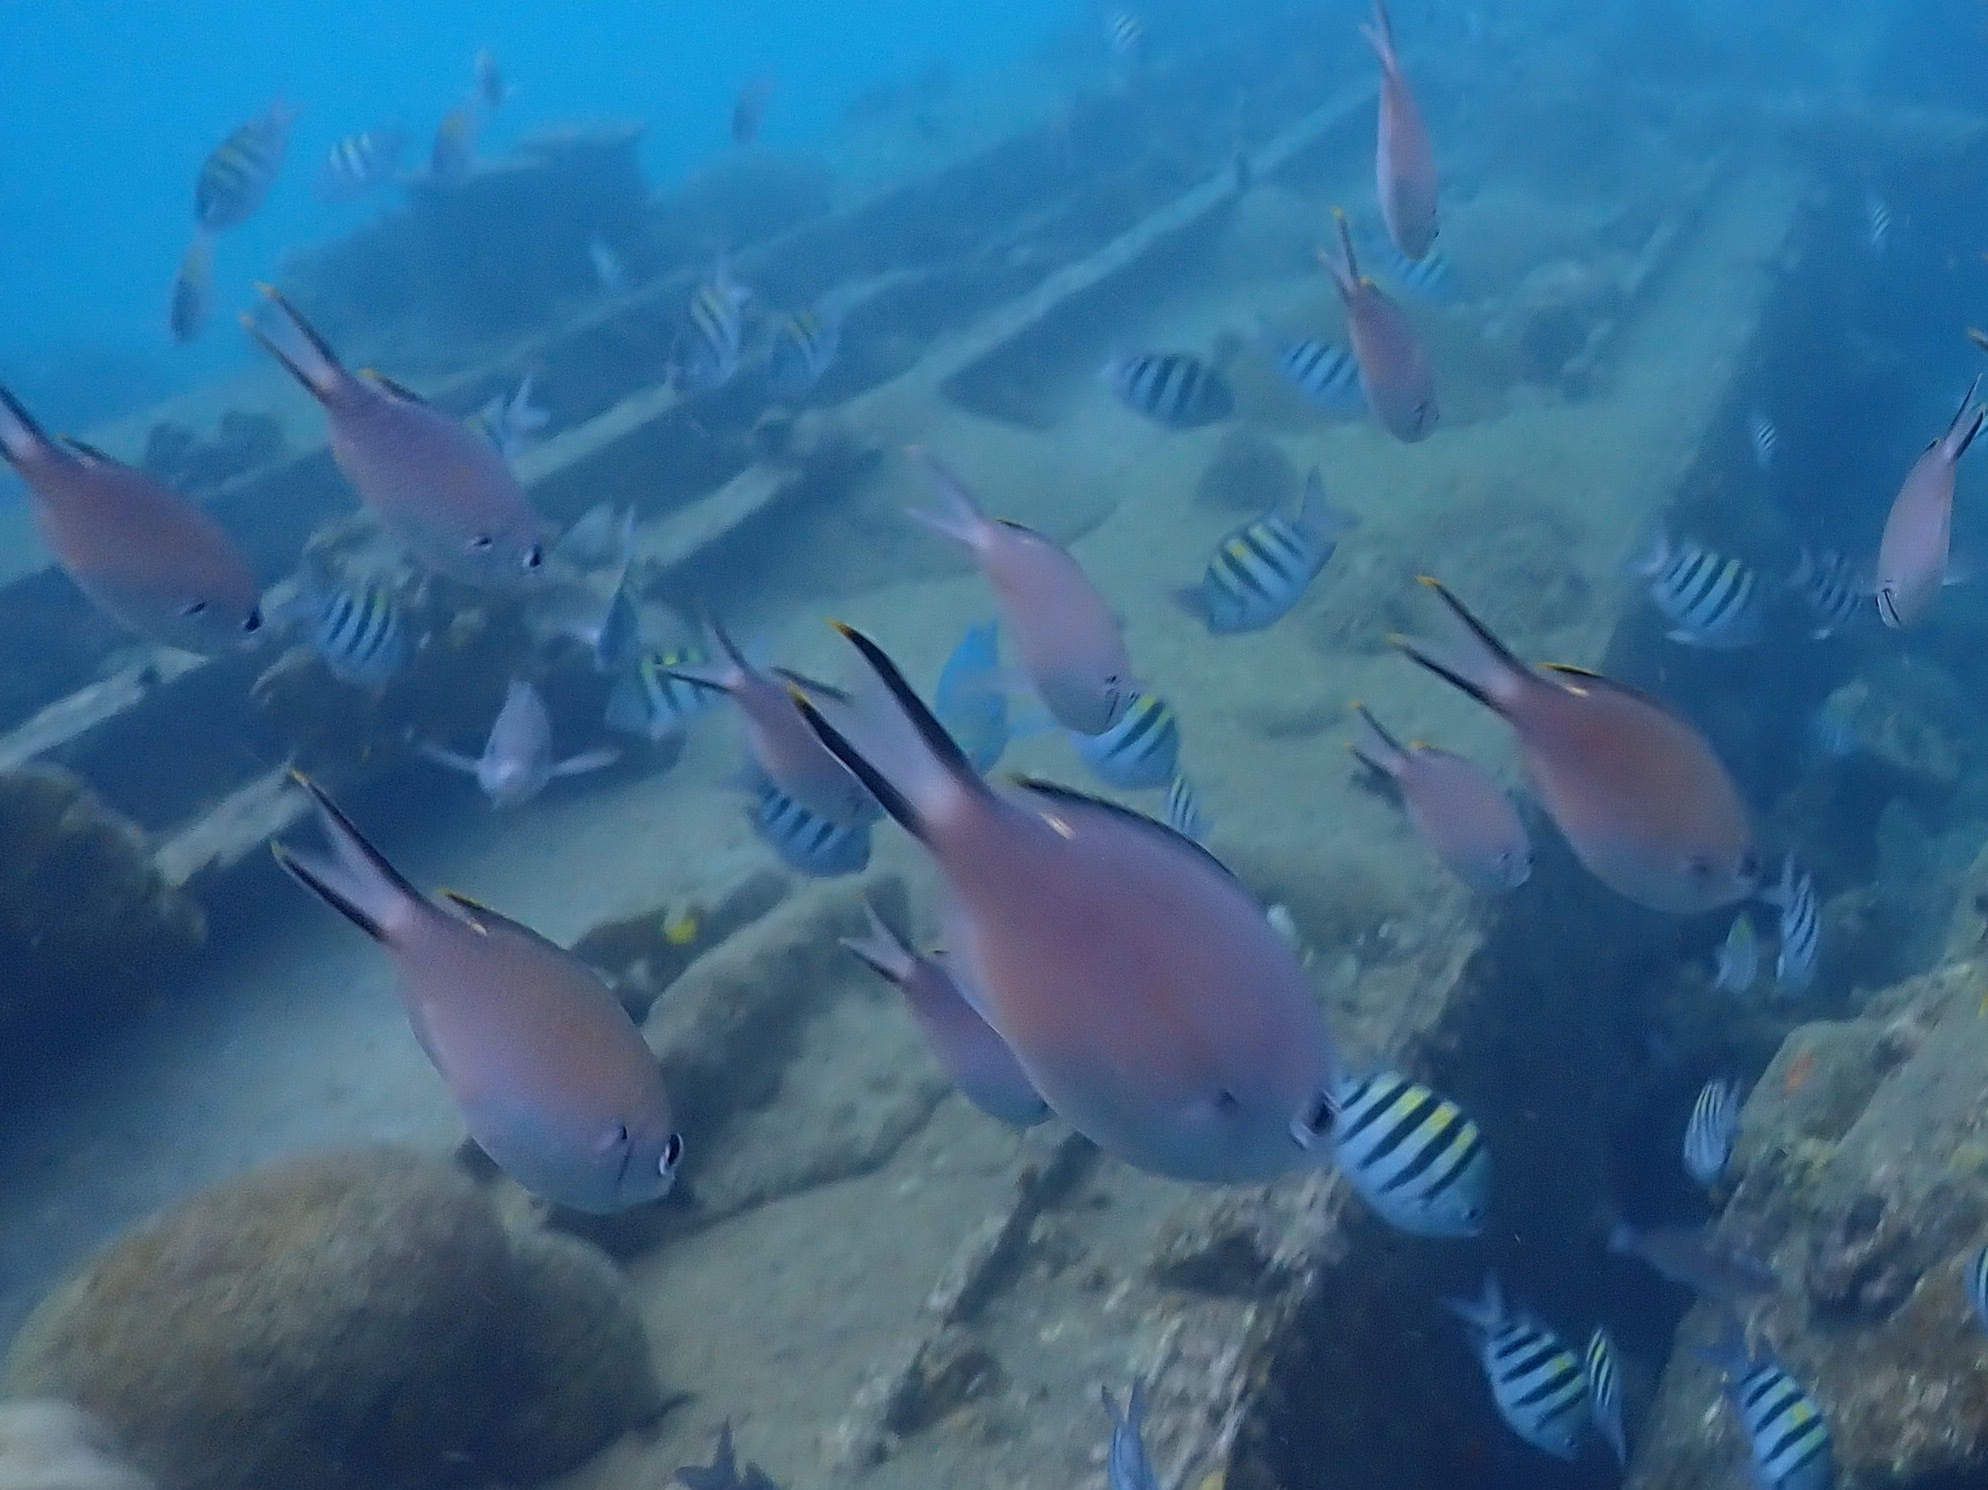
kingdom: Animalia
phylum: Chordata
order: Perciformes
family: Pomacentridae
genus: Chromis
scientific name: Chromis multilineata
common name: Brown chromis
